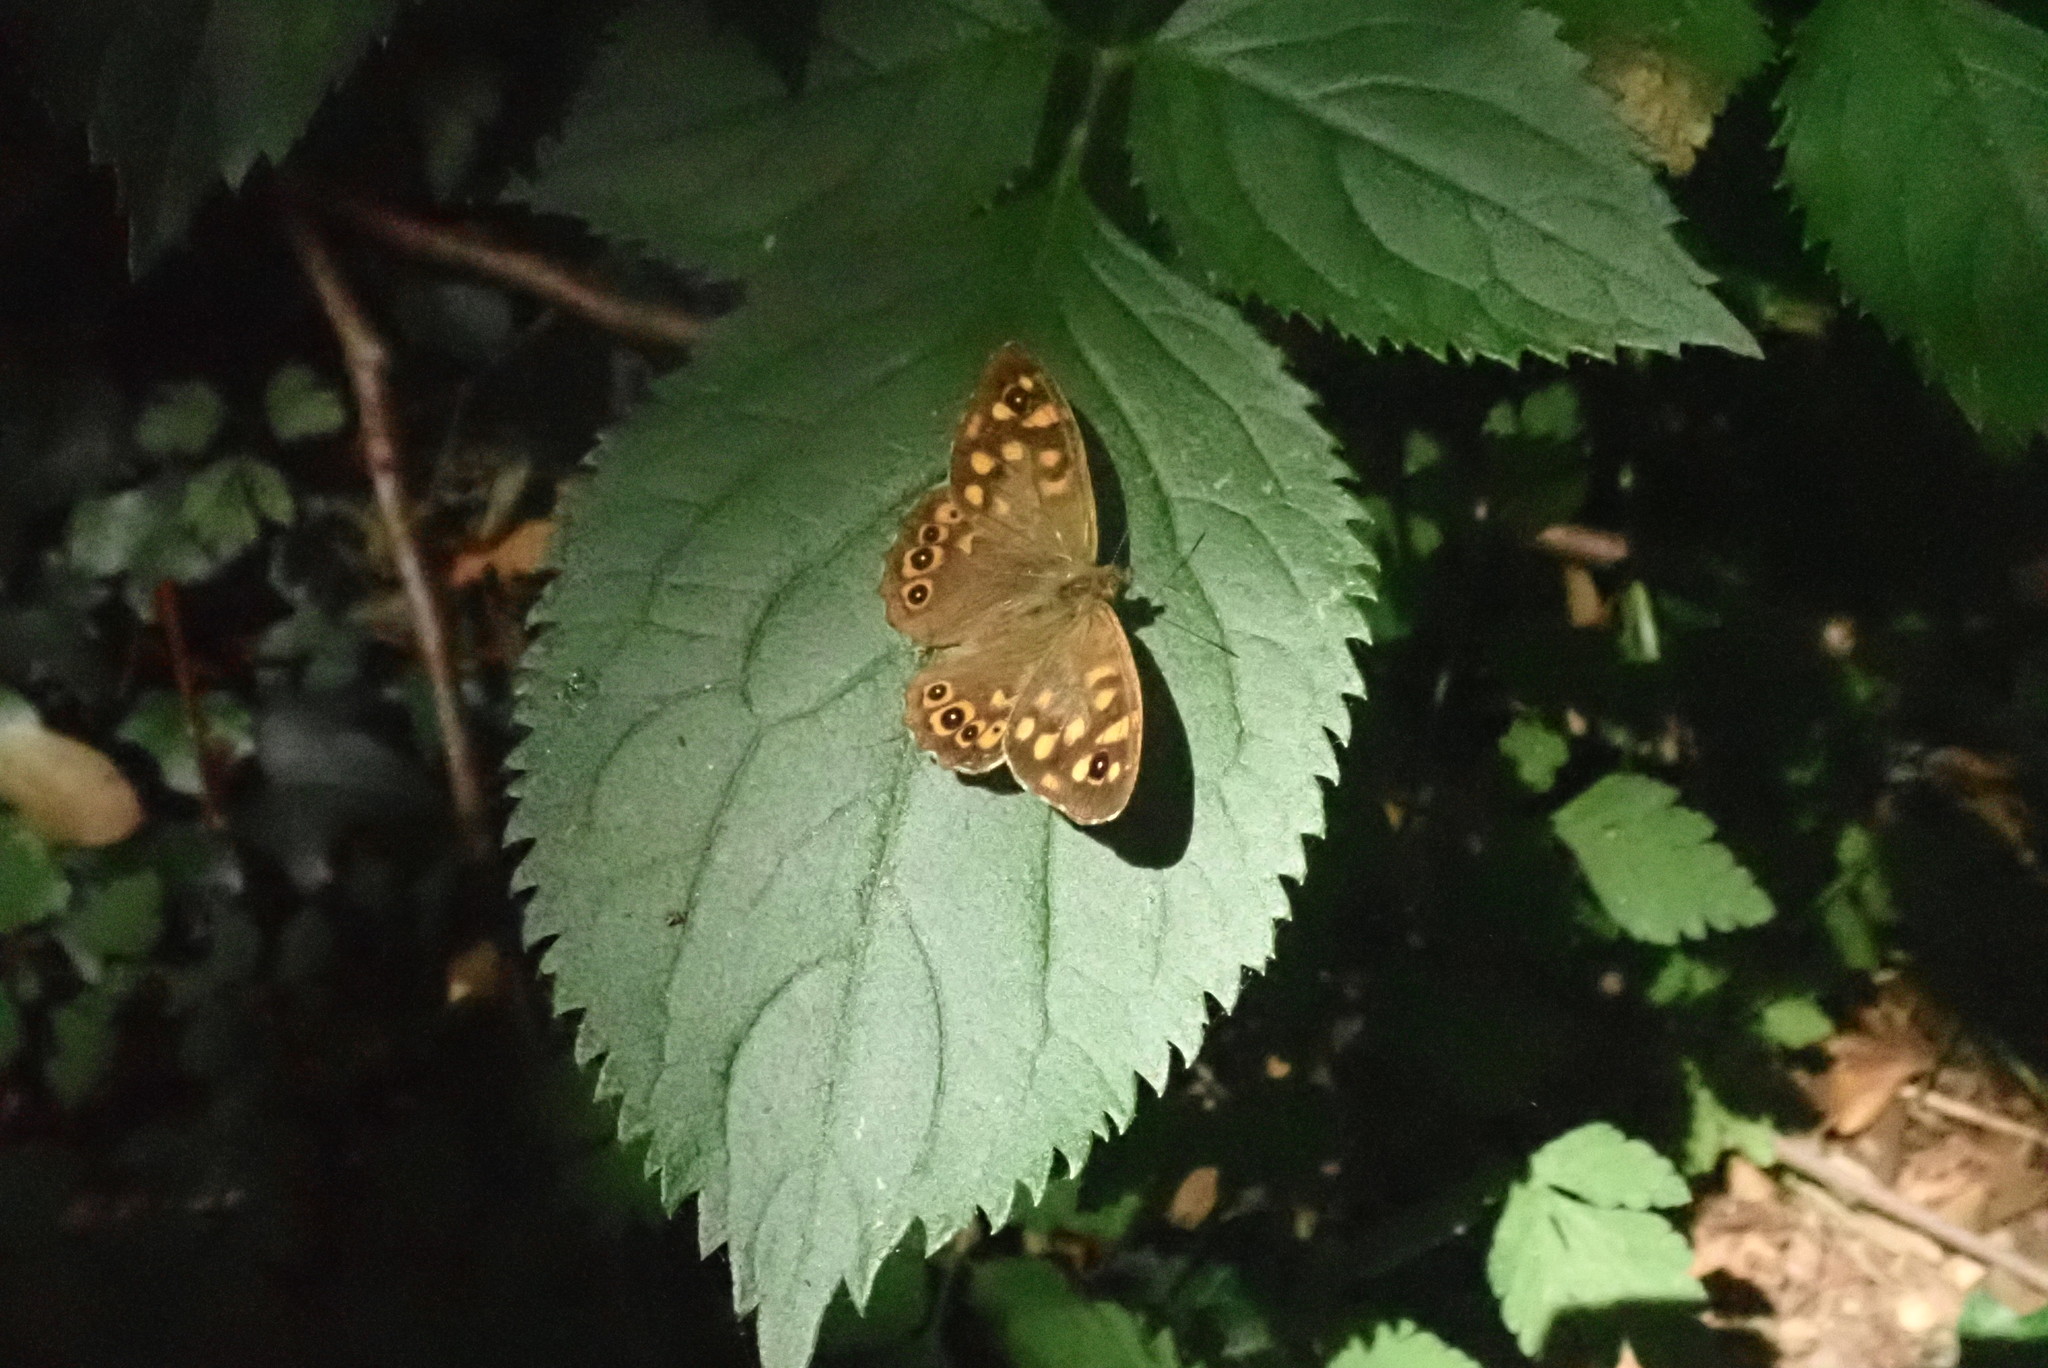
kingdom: Animalia
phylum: Arthropoda
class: Insecta
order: Lepidoptera
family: Nymphalidae
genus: Pararge
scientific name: Pararge aegeria
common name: Speckled wood
